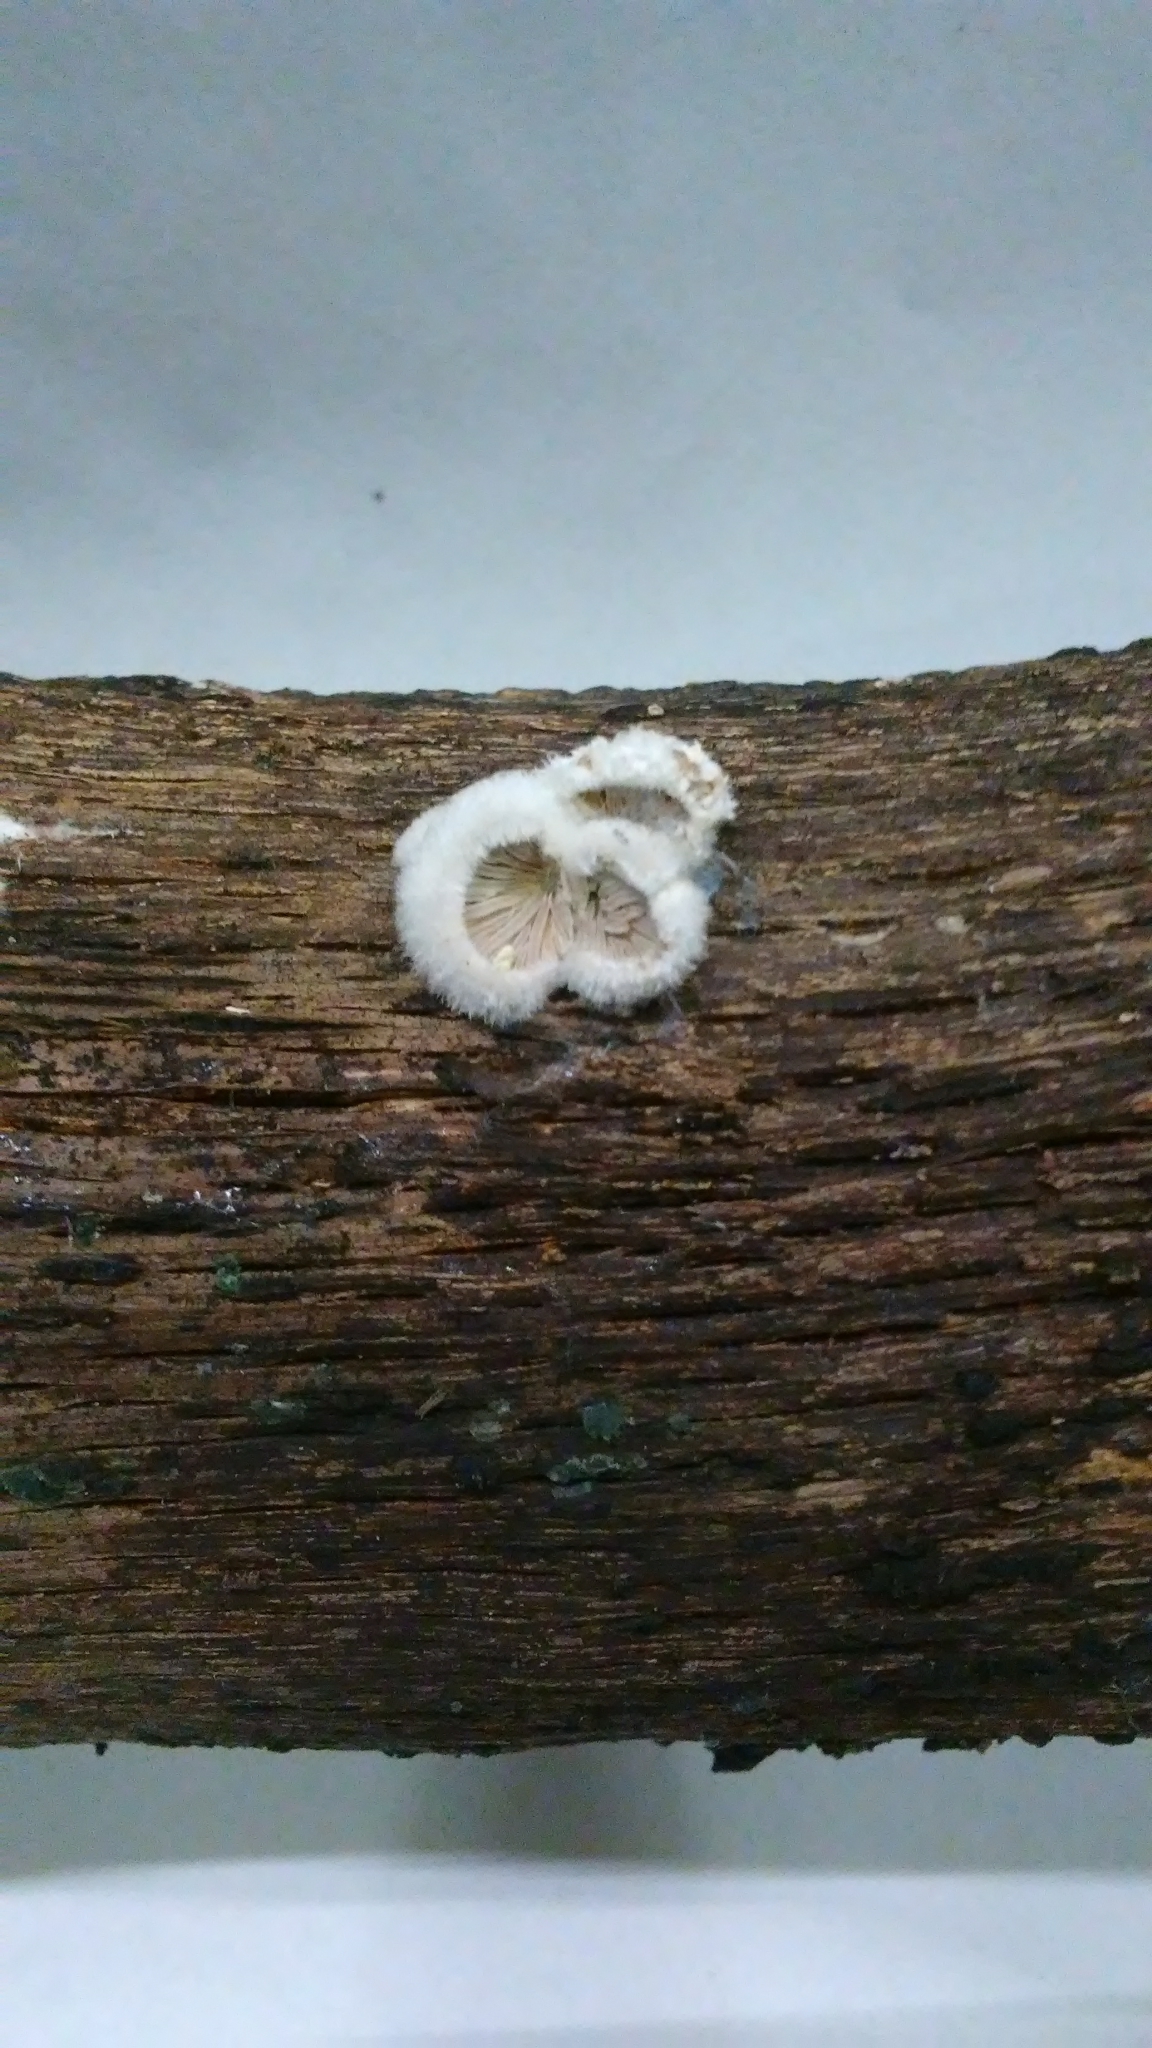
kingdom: Fungi
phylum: Basidiomycota
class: Agaricomycetes
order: Agaricales
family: Schizophyllaceae
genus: Schizophyllum
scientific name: Schizophyllum commune
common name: Common porecrust
